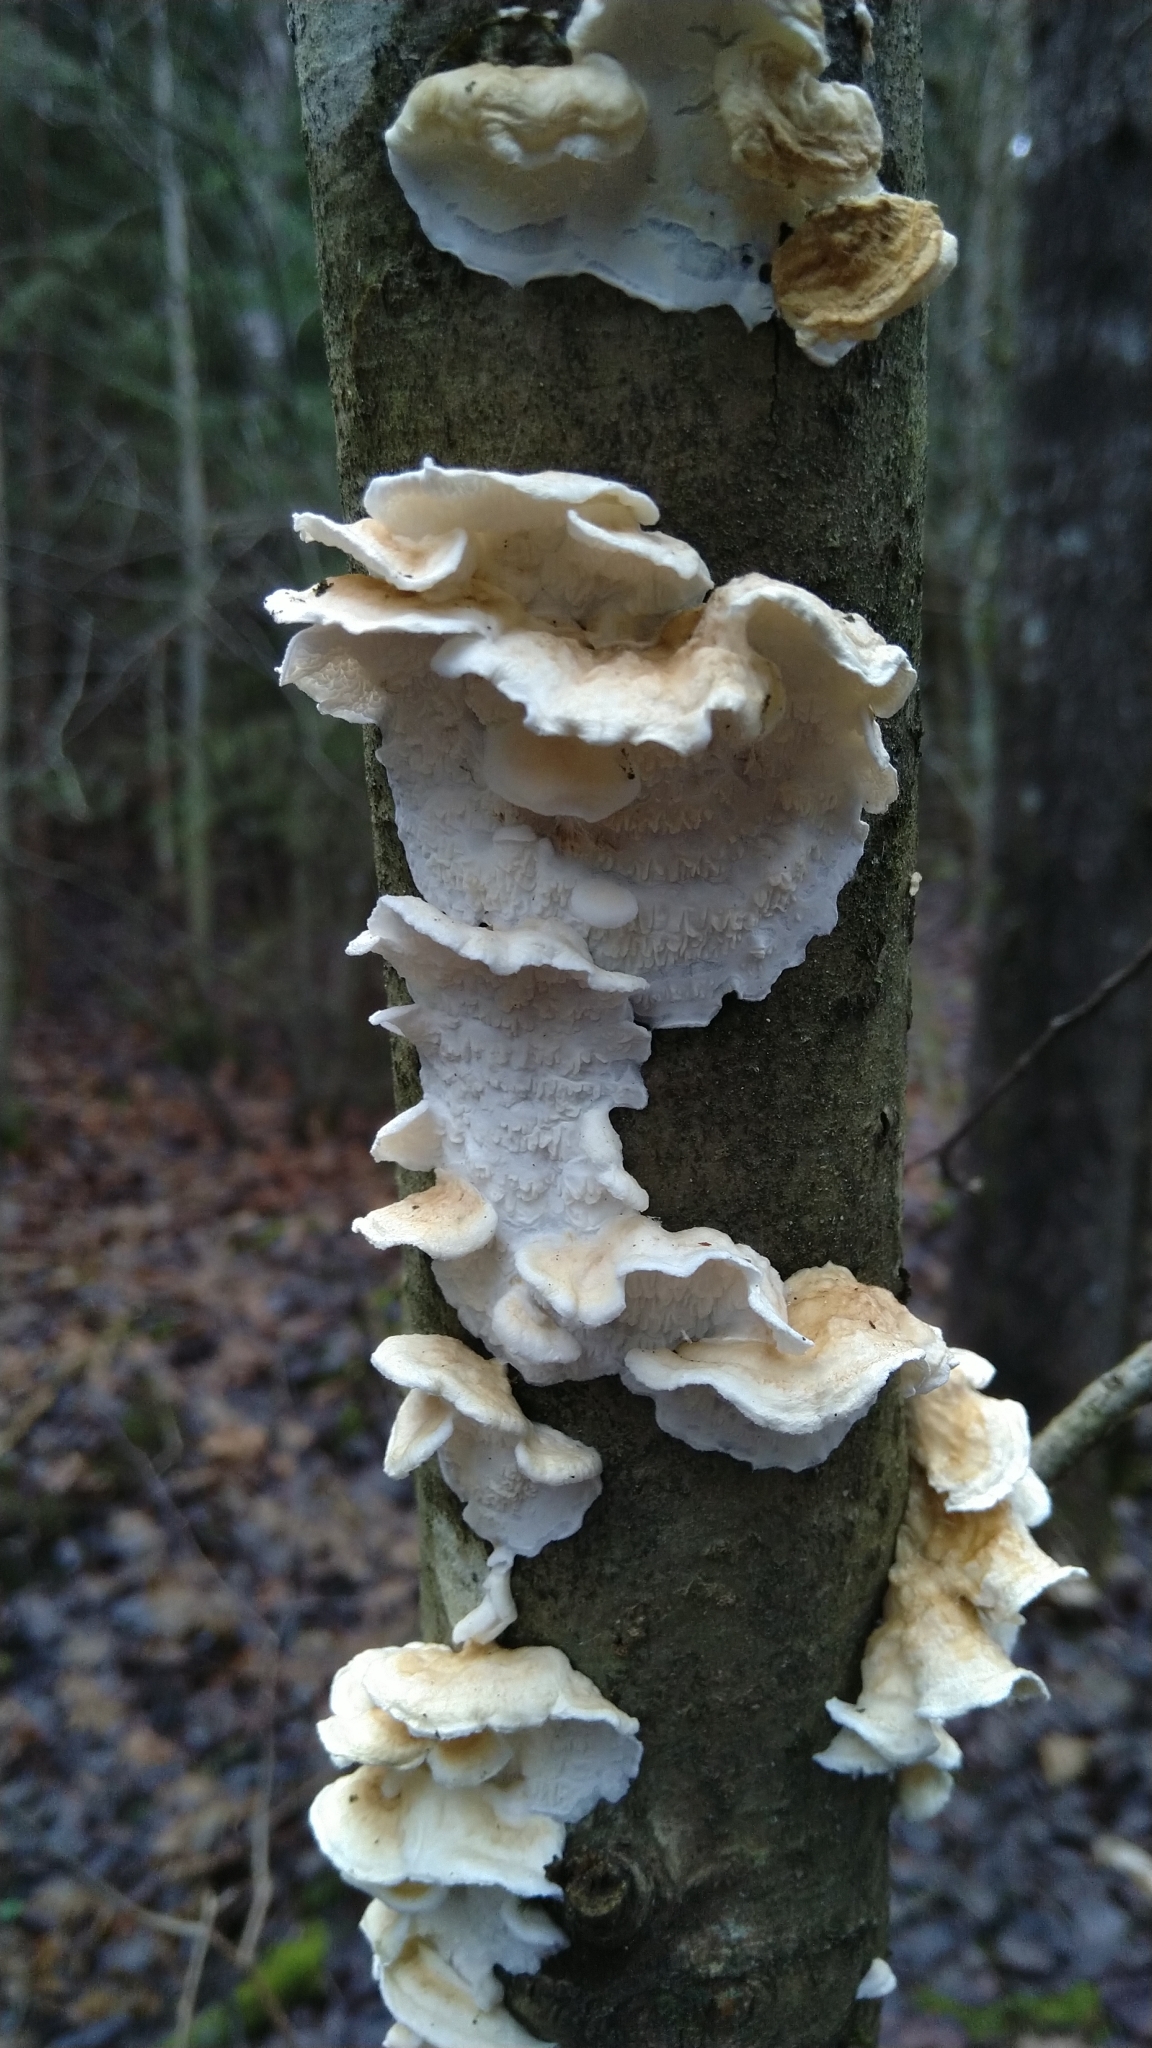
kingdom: Fungi
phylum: Basidiomycota
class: Agaricomycetes
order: Agaricales
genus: Plicatura
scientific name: Plicatura nivea
